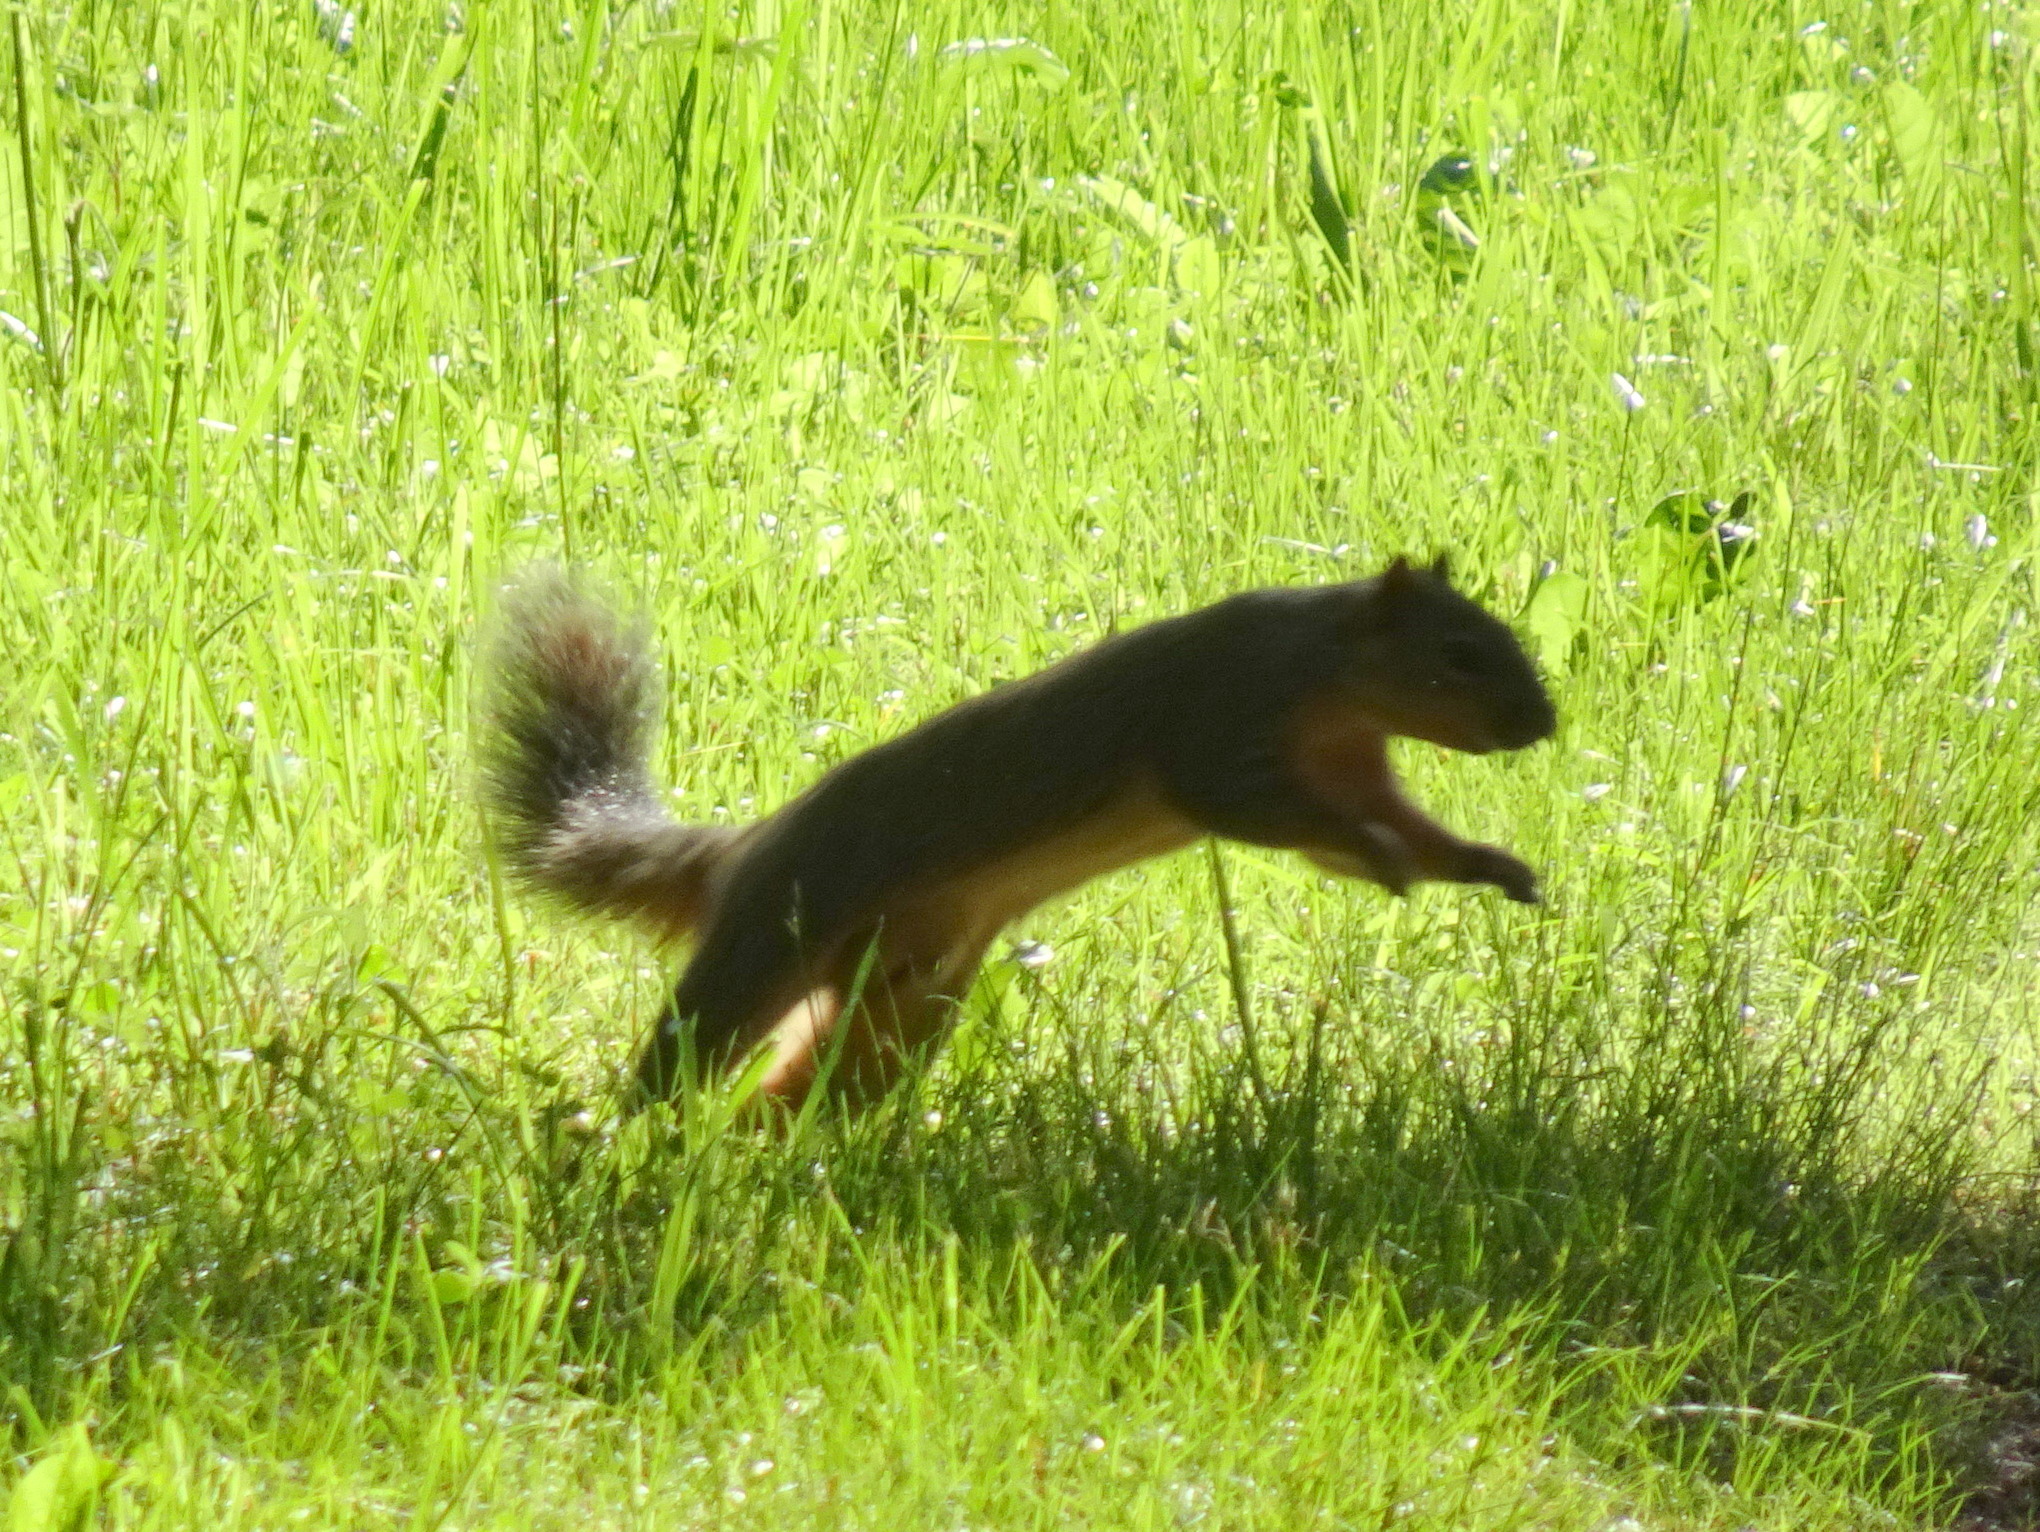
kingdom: Animalia
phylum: Chordata
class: Mammalia
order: Rodentia
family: Sciuridae
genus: Sciurus
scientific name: Sciurus niger
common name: Fox squirrel
